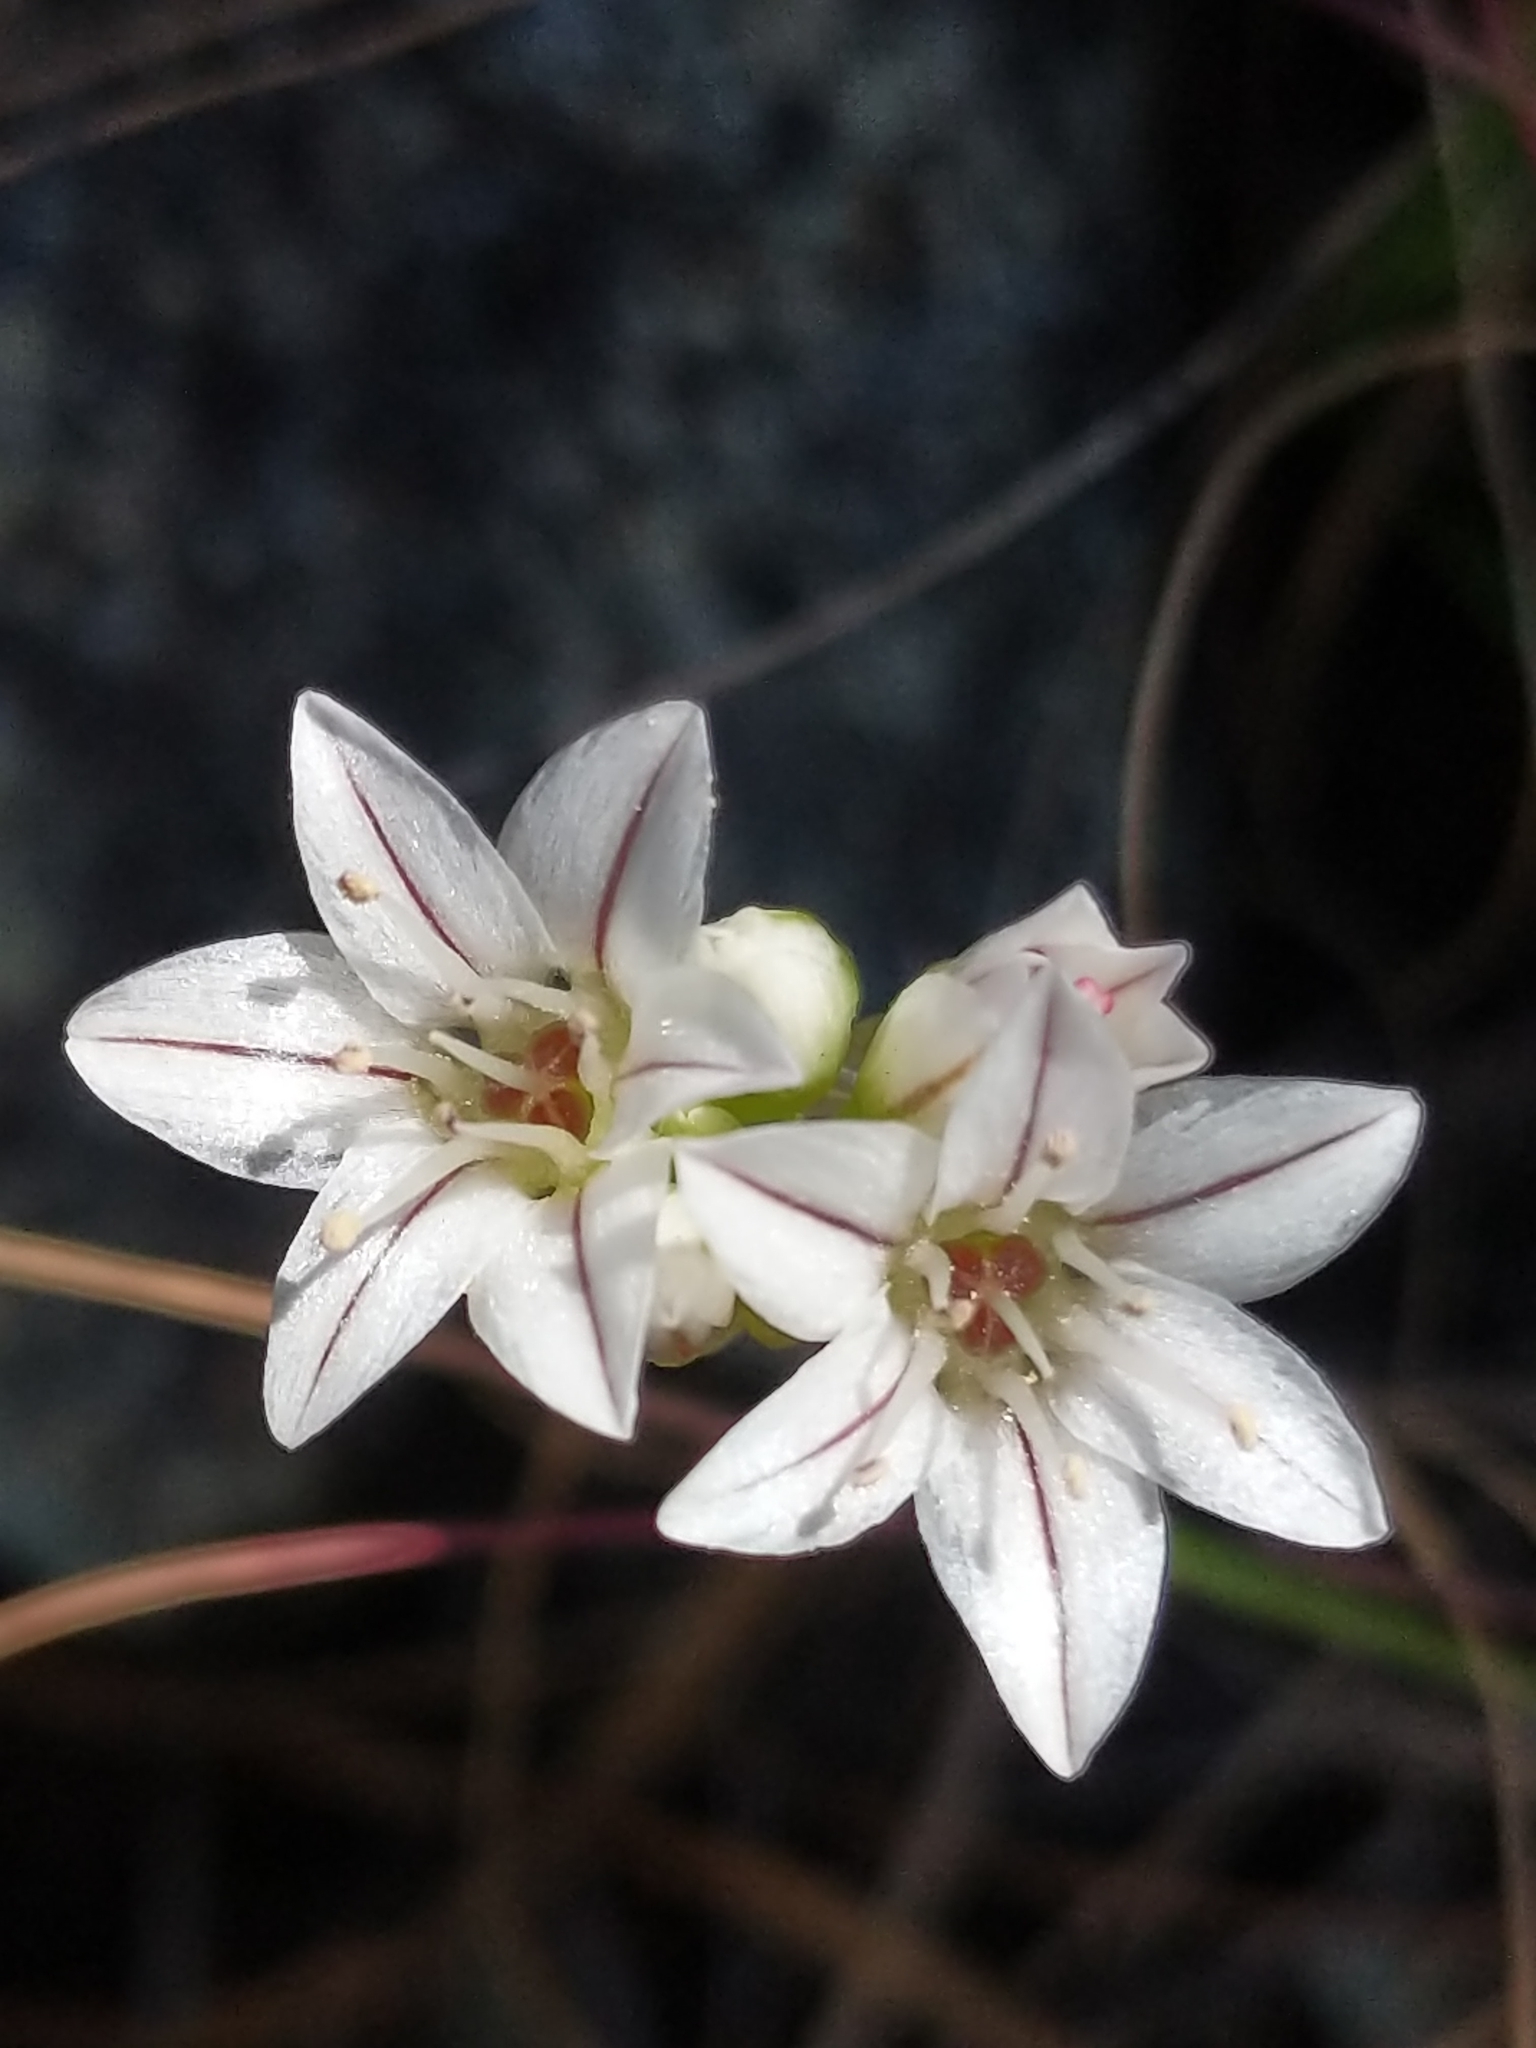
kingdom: Plantae
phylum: Tracheophyta
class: Liliopsida
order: Asparagales
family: Amaryllidaceae
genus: Allium
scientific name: Allium lacunosum
